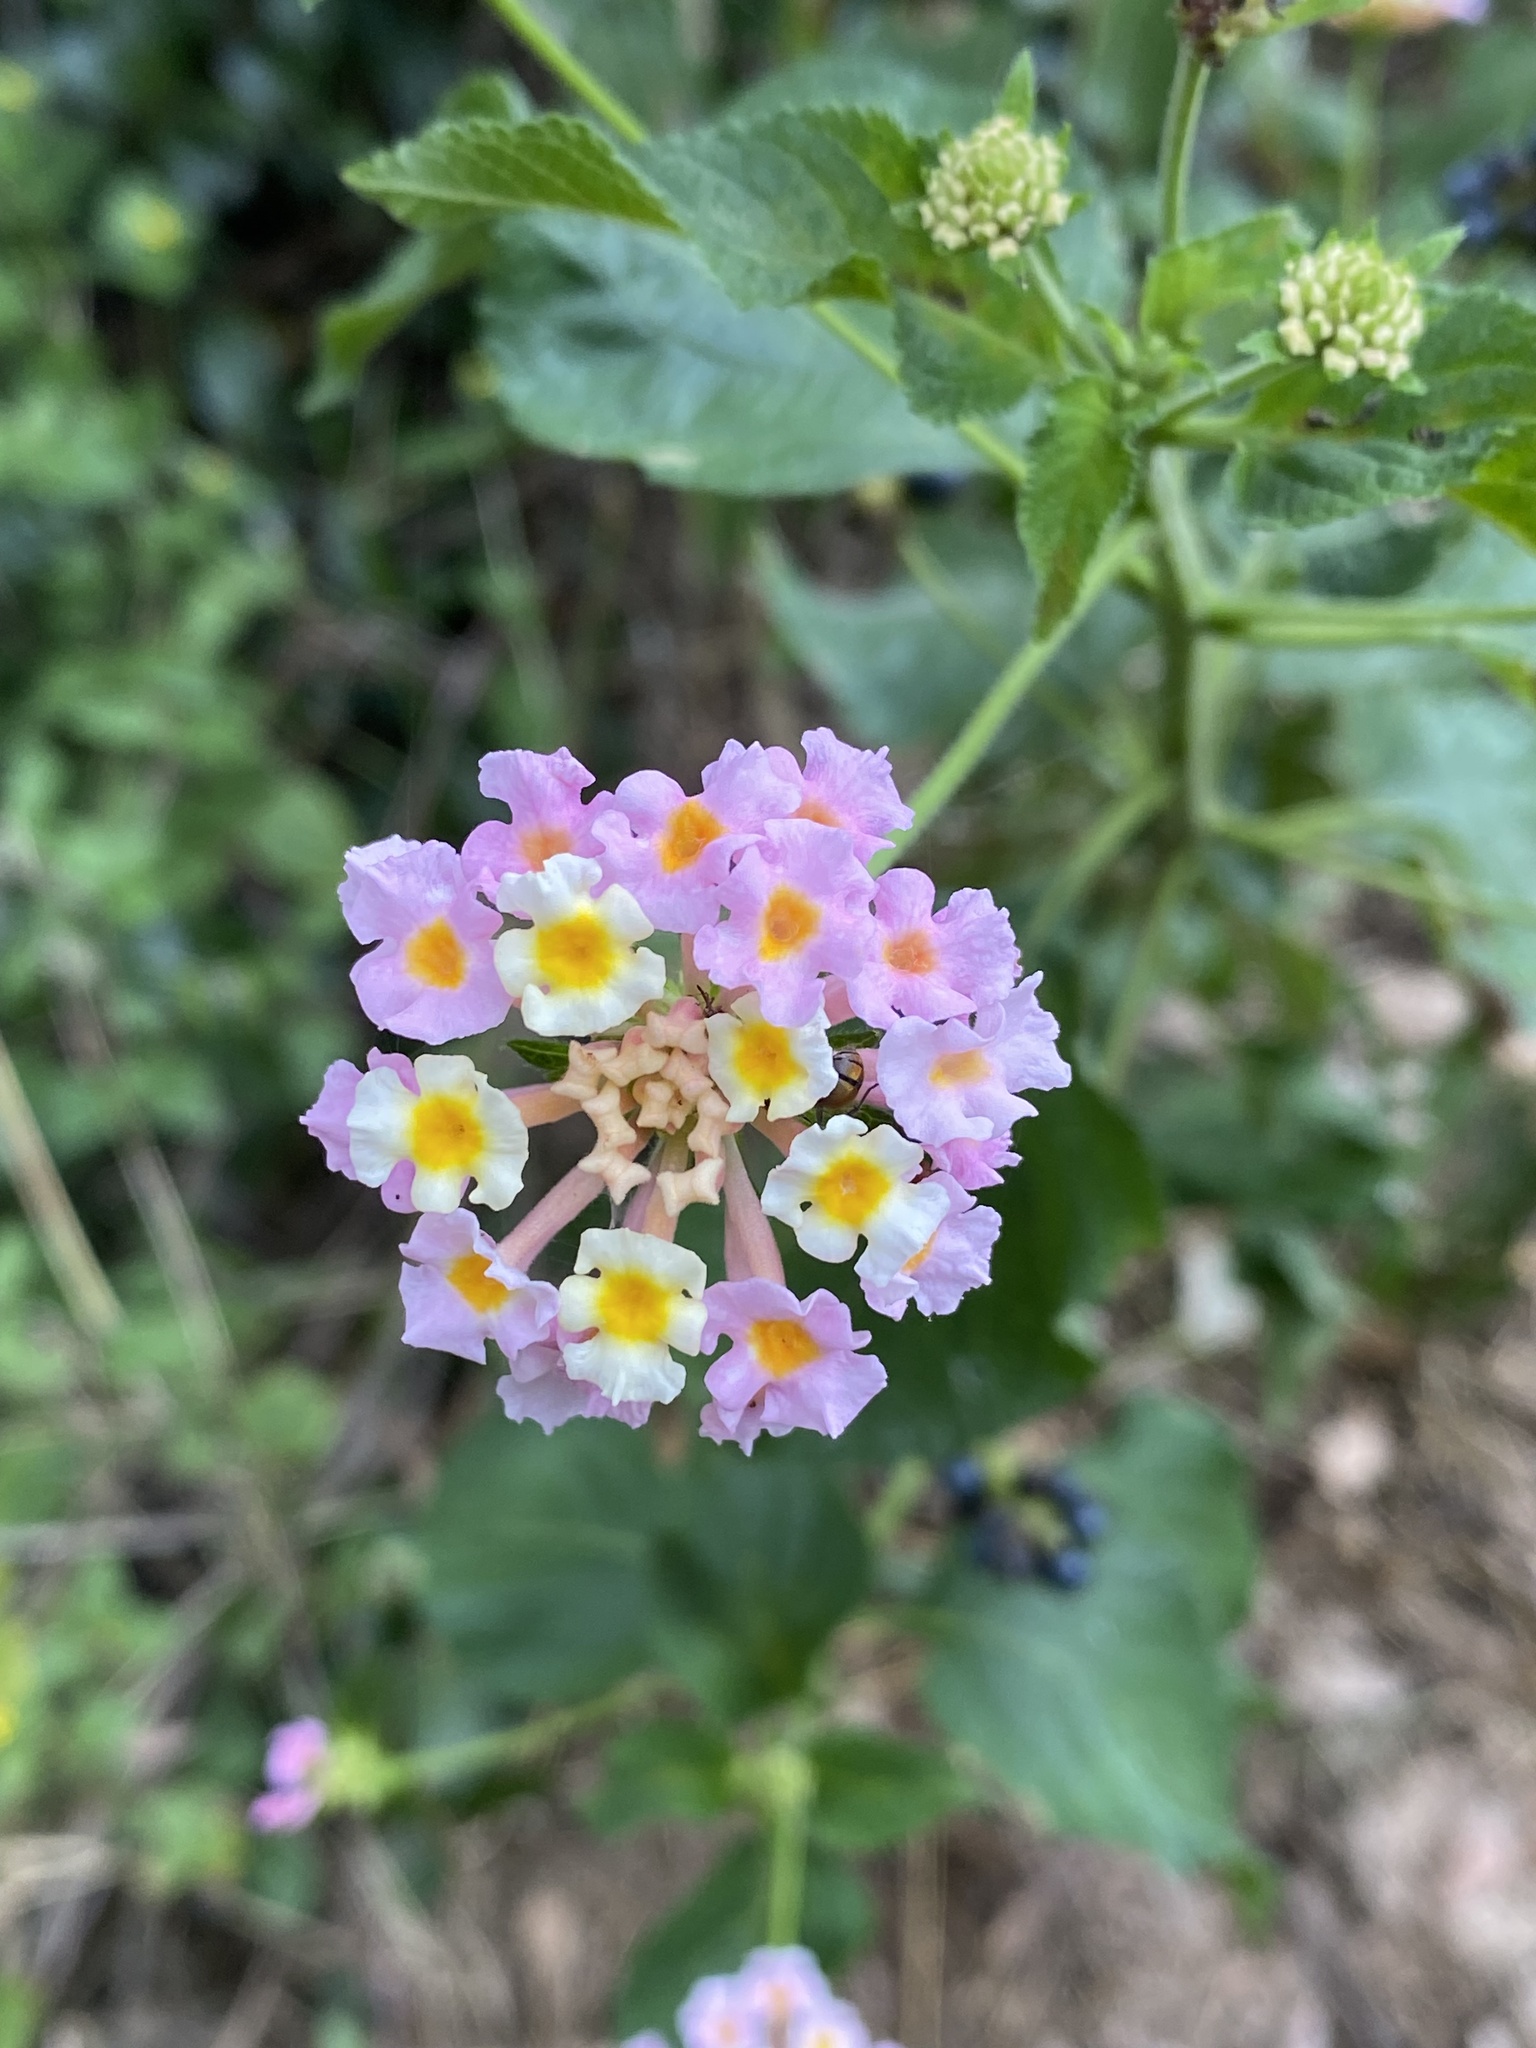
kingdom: Plantae
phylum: Tracheophyta
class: Magnoliopsida
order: Lamiales
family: Verbenaceae
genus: Lantana
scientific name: Lantana camara
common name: Lantana
